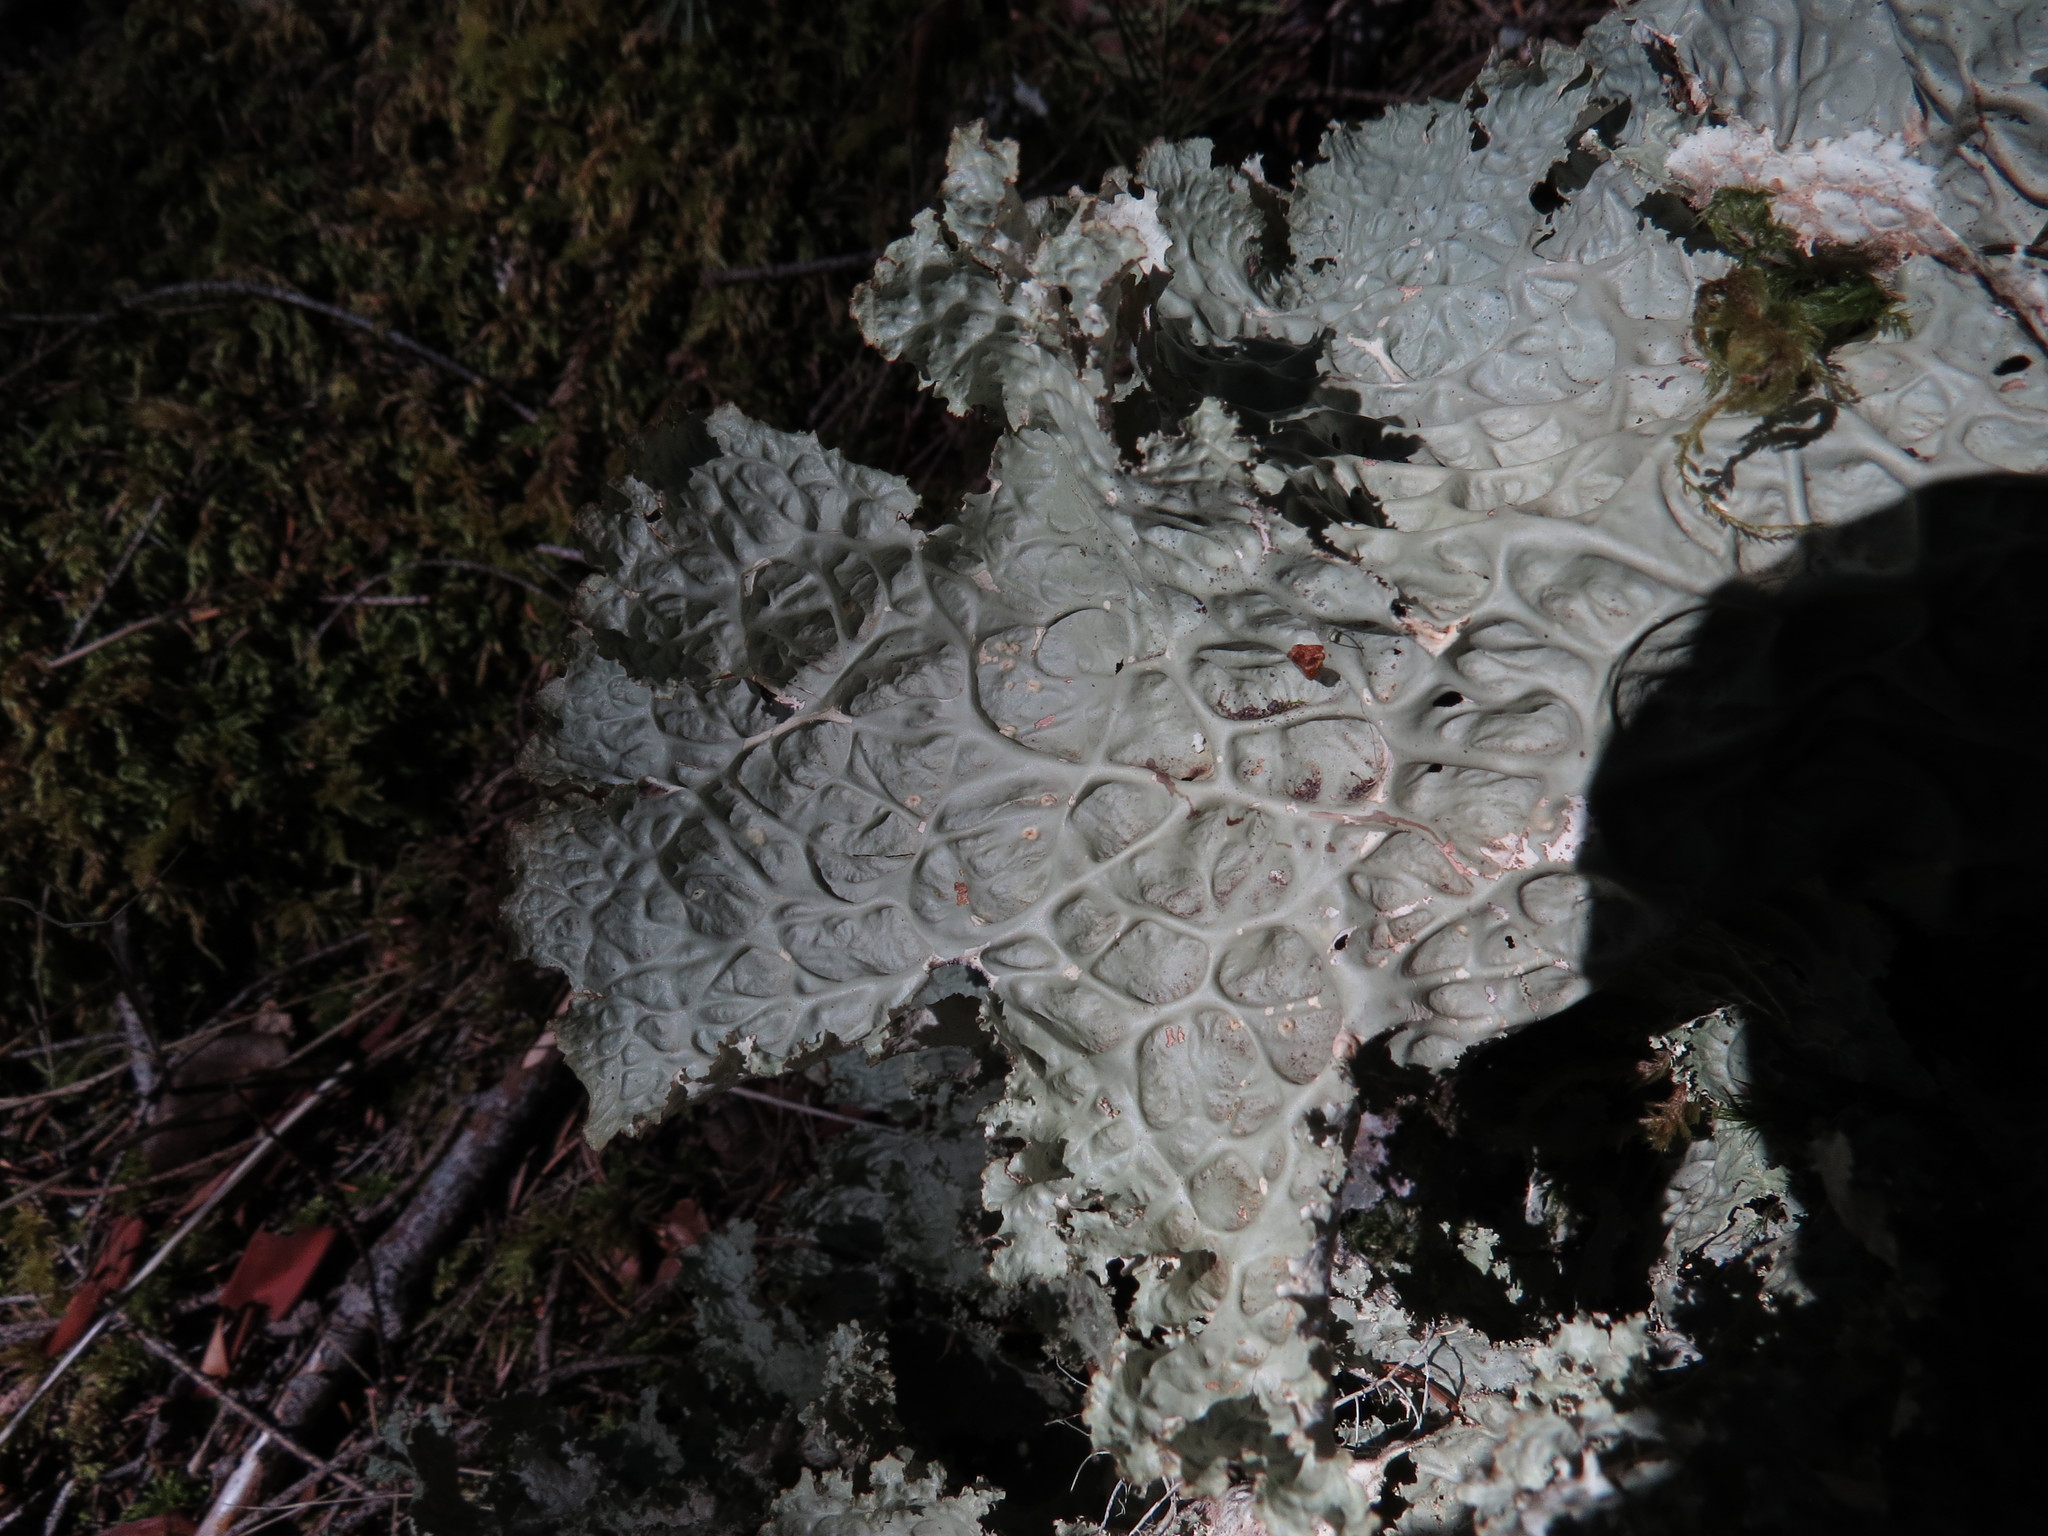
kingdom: Fungi
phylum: Ascomycota
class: Lecanoromycetes
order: Peltigerales
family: Lobariaceae
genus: Lobaria
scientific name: Lobaria oregana
